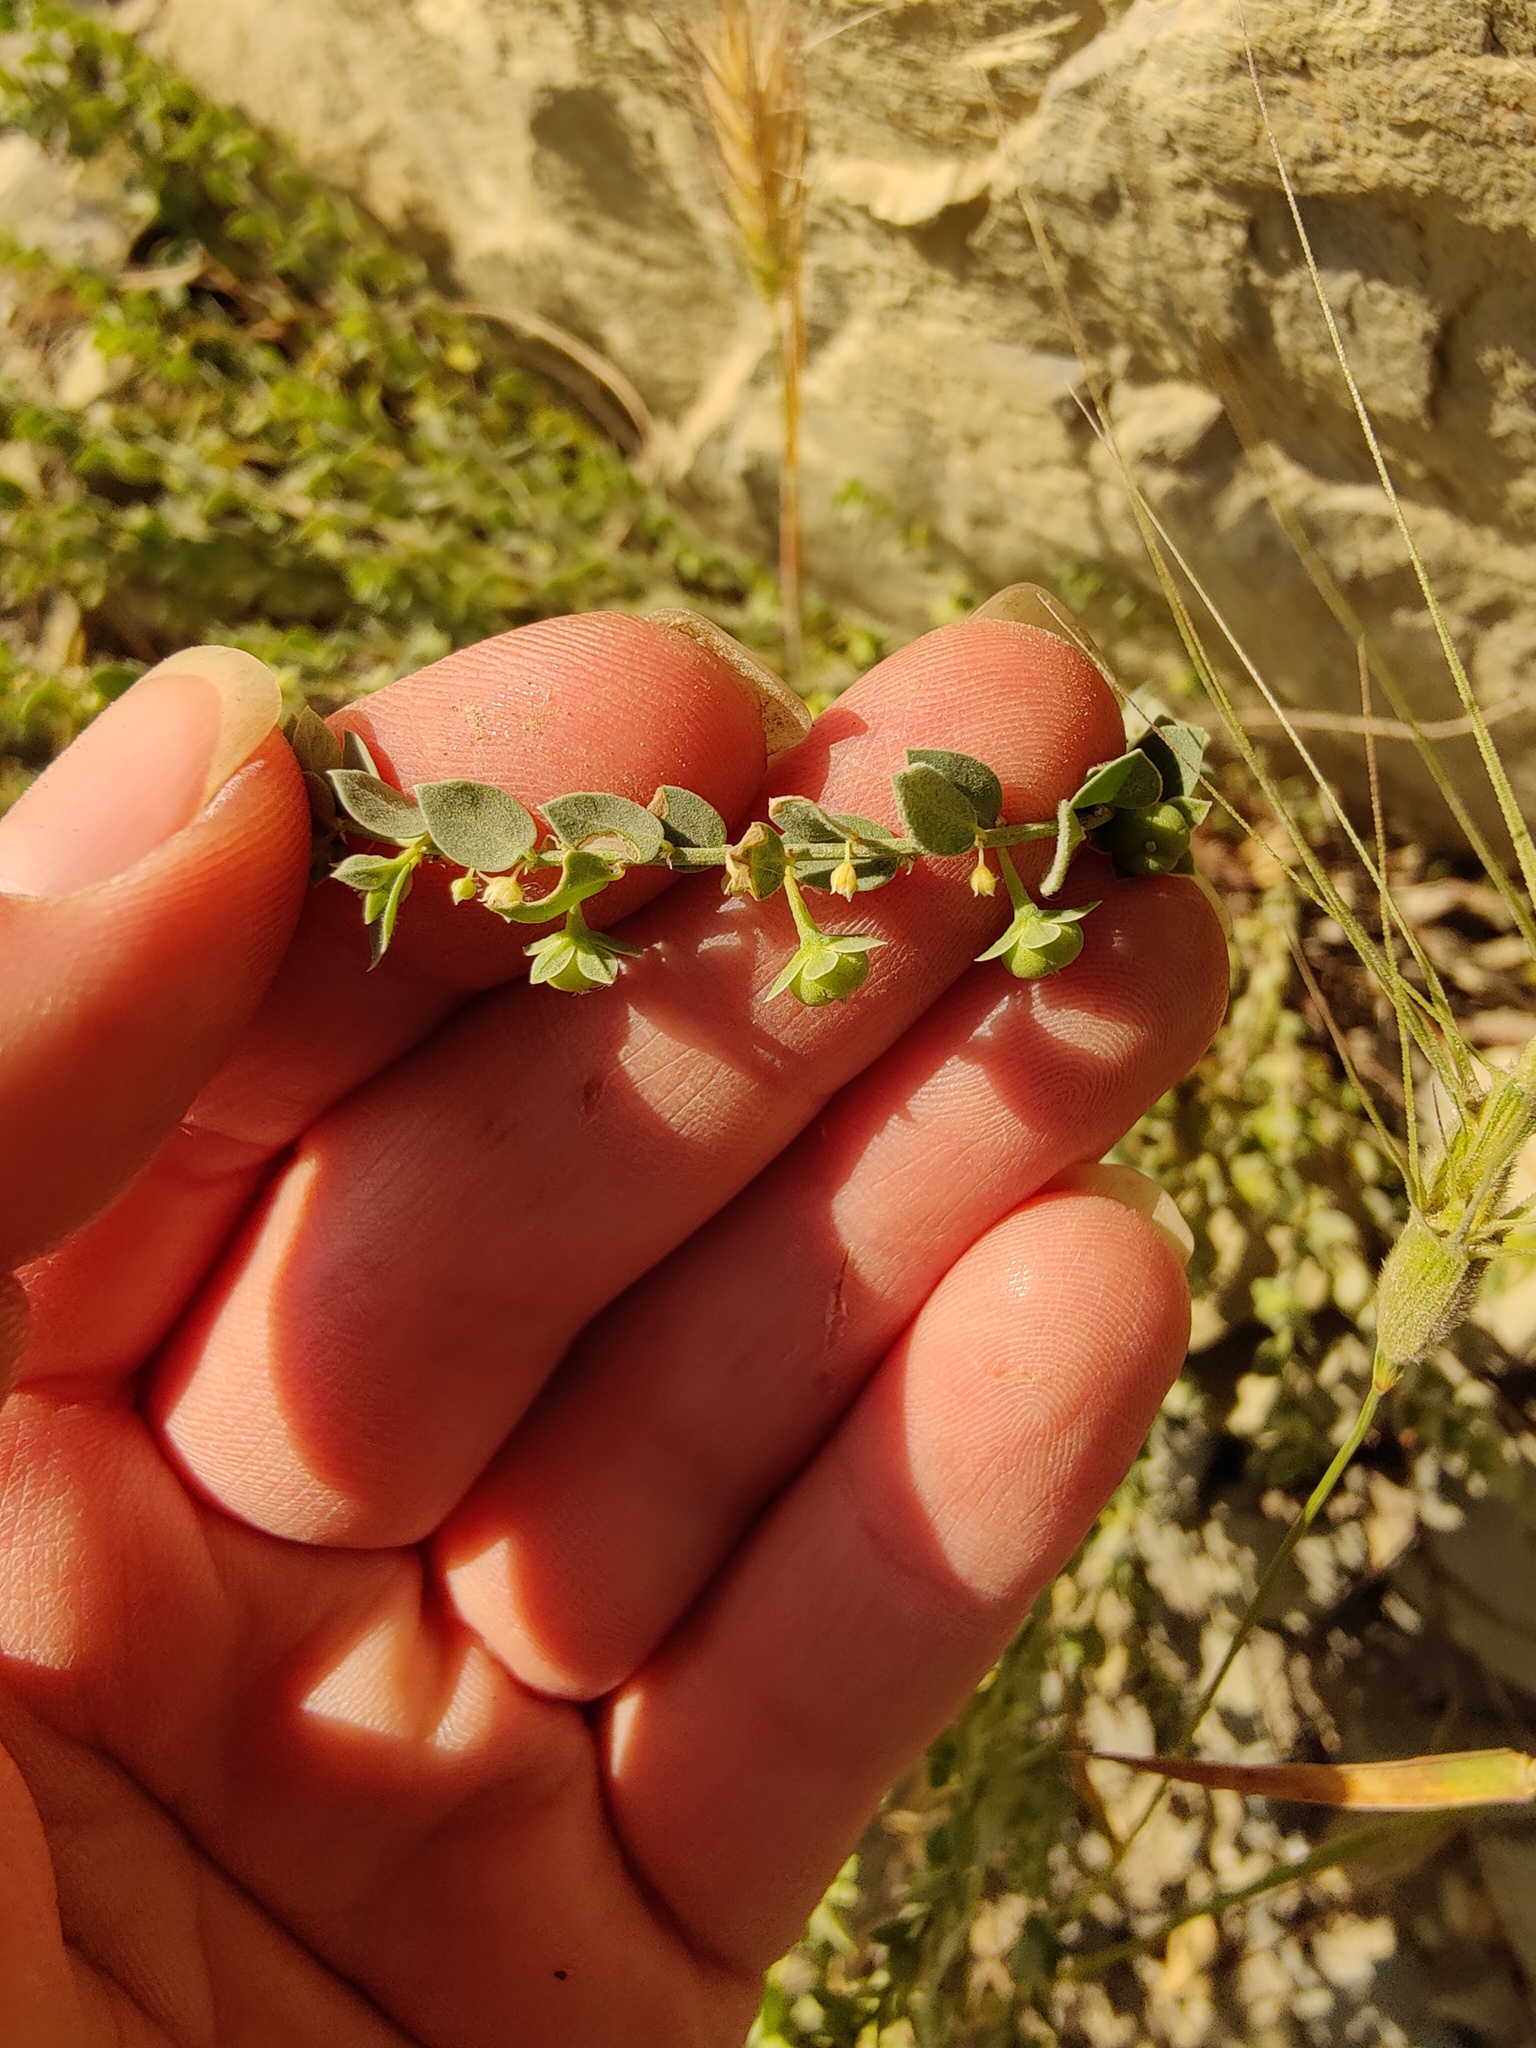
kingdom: Plantae
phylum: Tracheophyta
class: Magnoliopsida
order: Malpighiales
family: Phyllanthaceae
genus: Andrachne
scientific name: Andrachne telephioides
